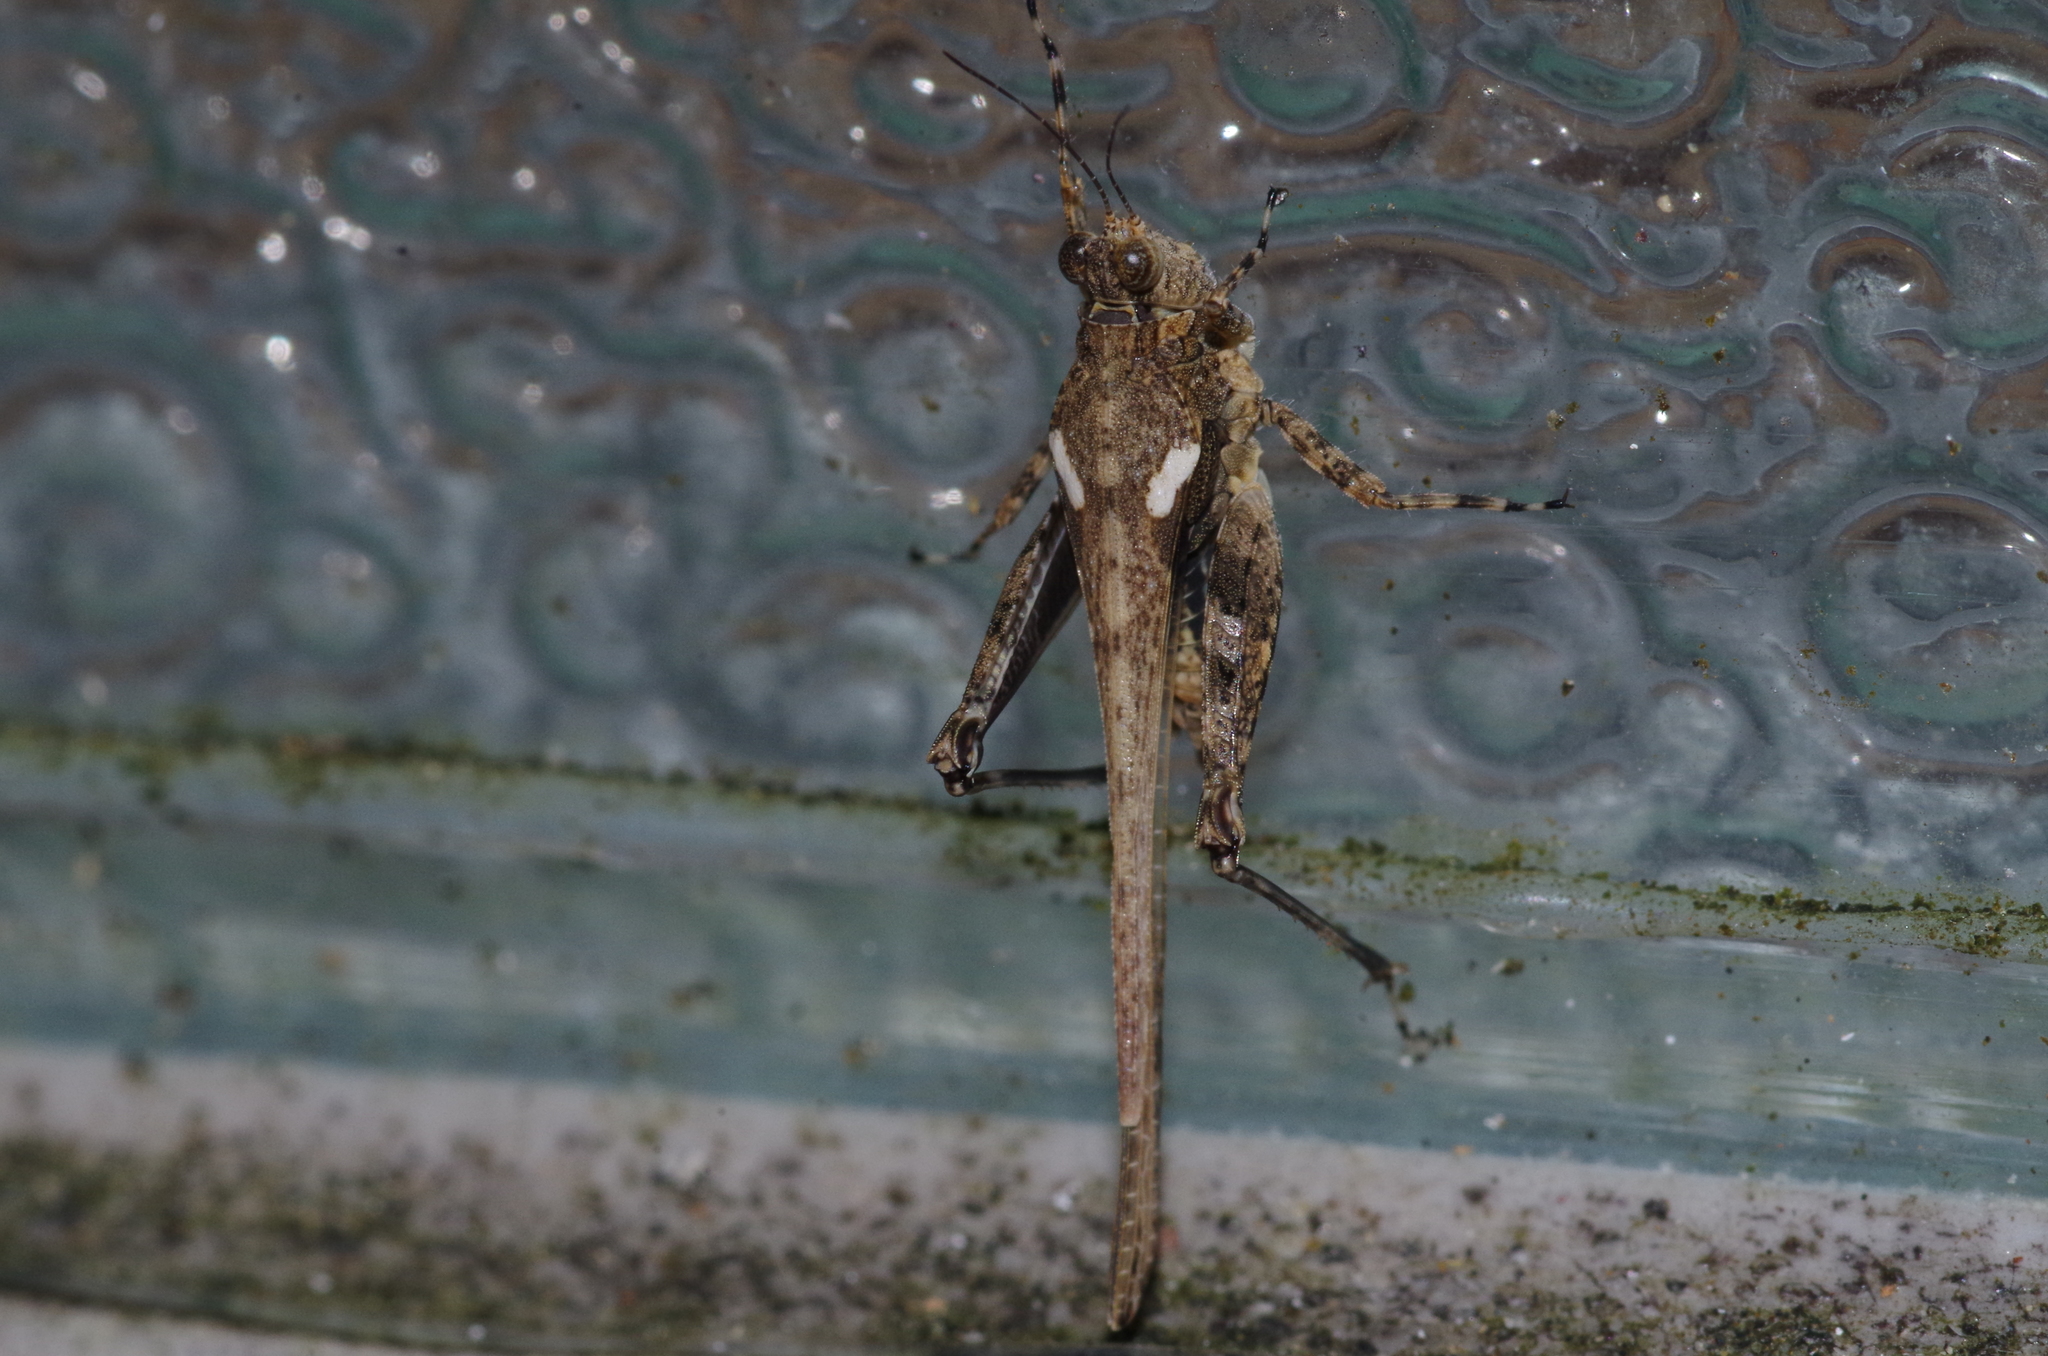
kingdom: Animalia
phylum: Arthropoda
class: Insecta
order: Orthoptera
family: Tetrigidae
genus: Paratettix
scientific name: Paratettix histricus
